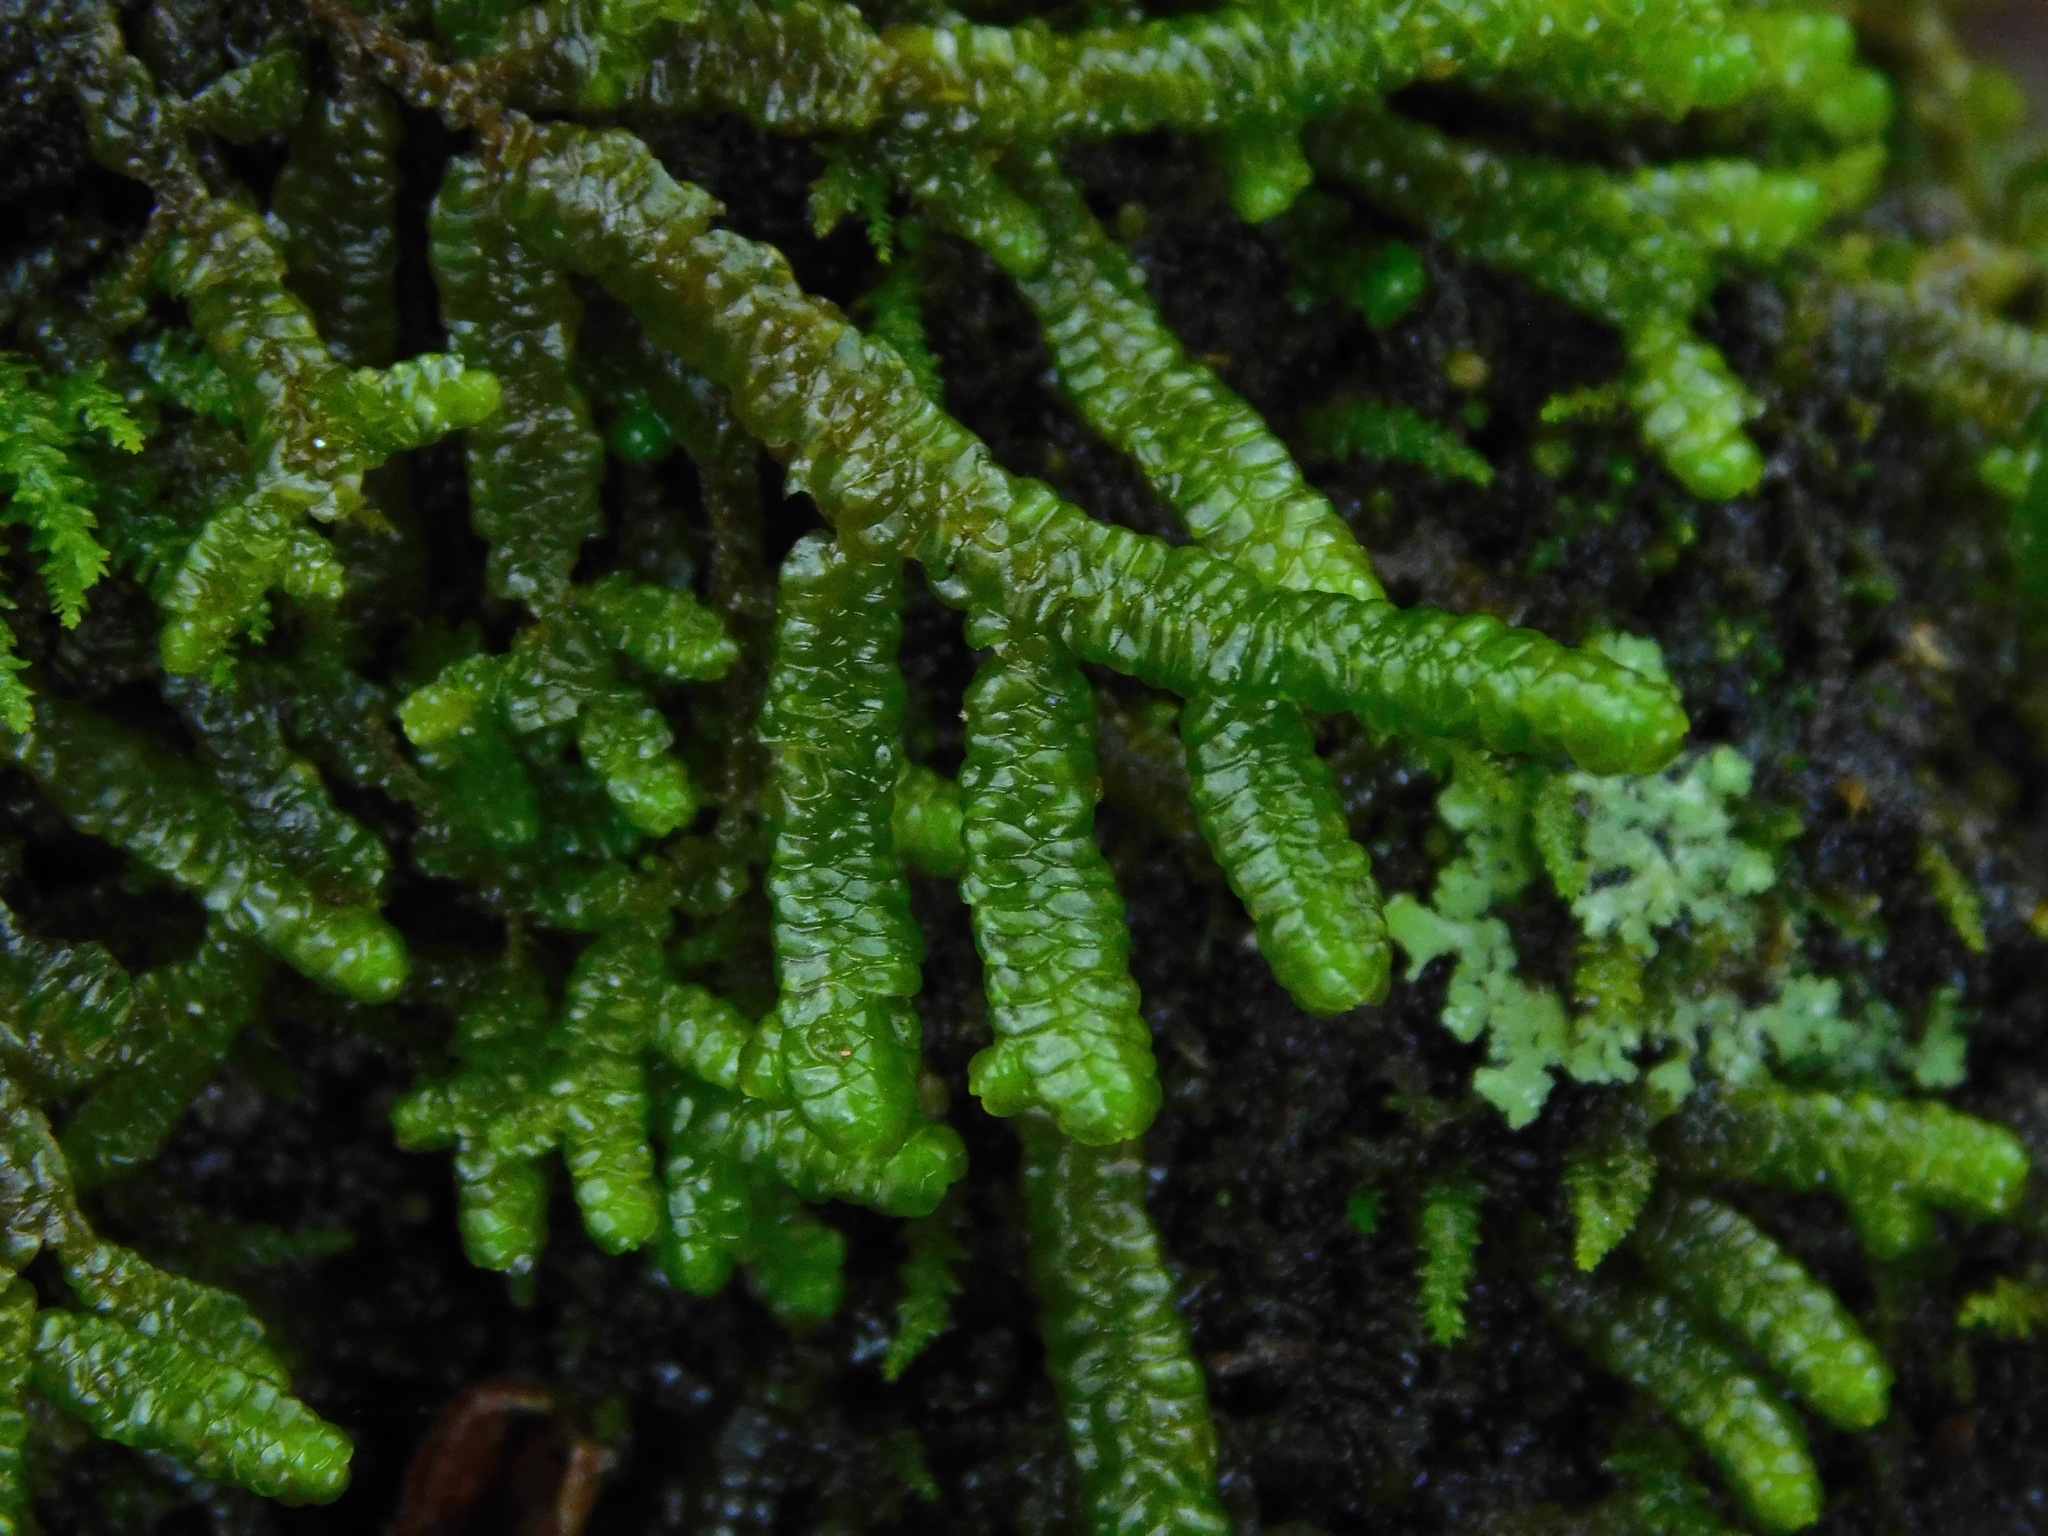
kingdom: Plantae
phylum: Marchantiophyta
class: Jungermanniopsida
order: Porellales
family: Porellaceae
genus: Porella
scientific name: Porella platyphylla
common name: Wall scalewort
